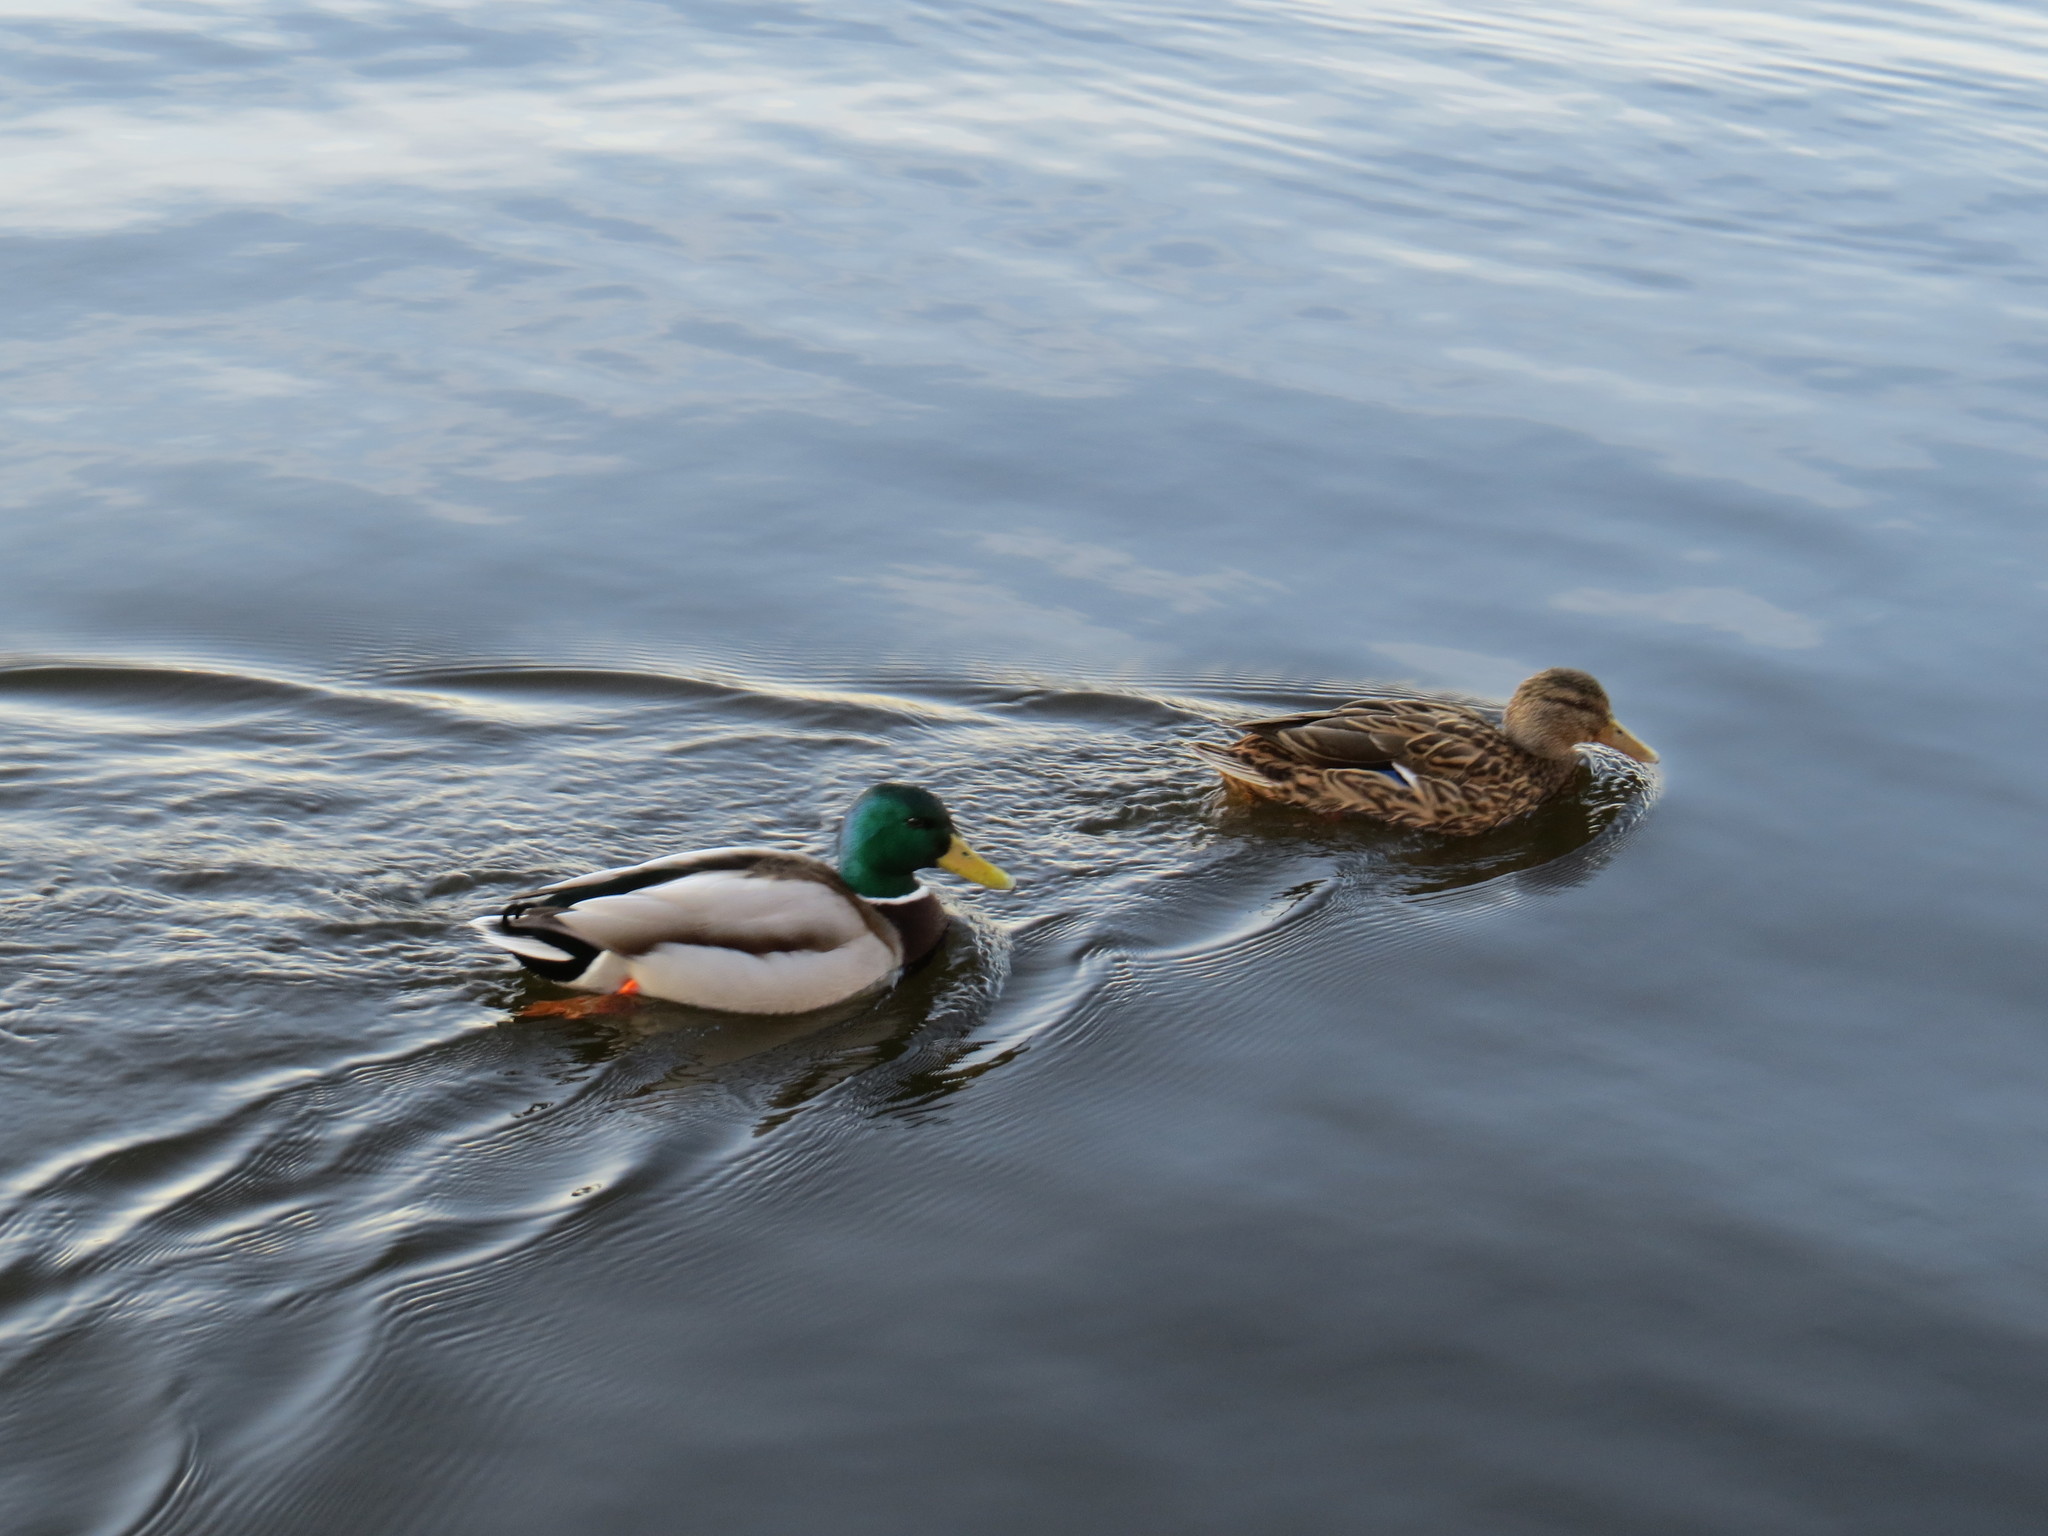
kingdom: Animalia
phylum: Chordata
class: Aves
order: Anseriformes
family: Anatidae
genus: Anas
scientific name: Anas platyrhynchos
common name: Mallard
